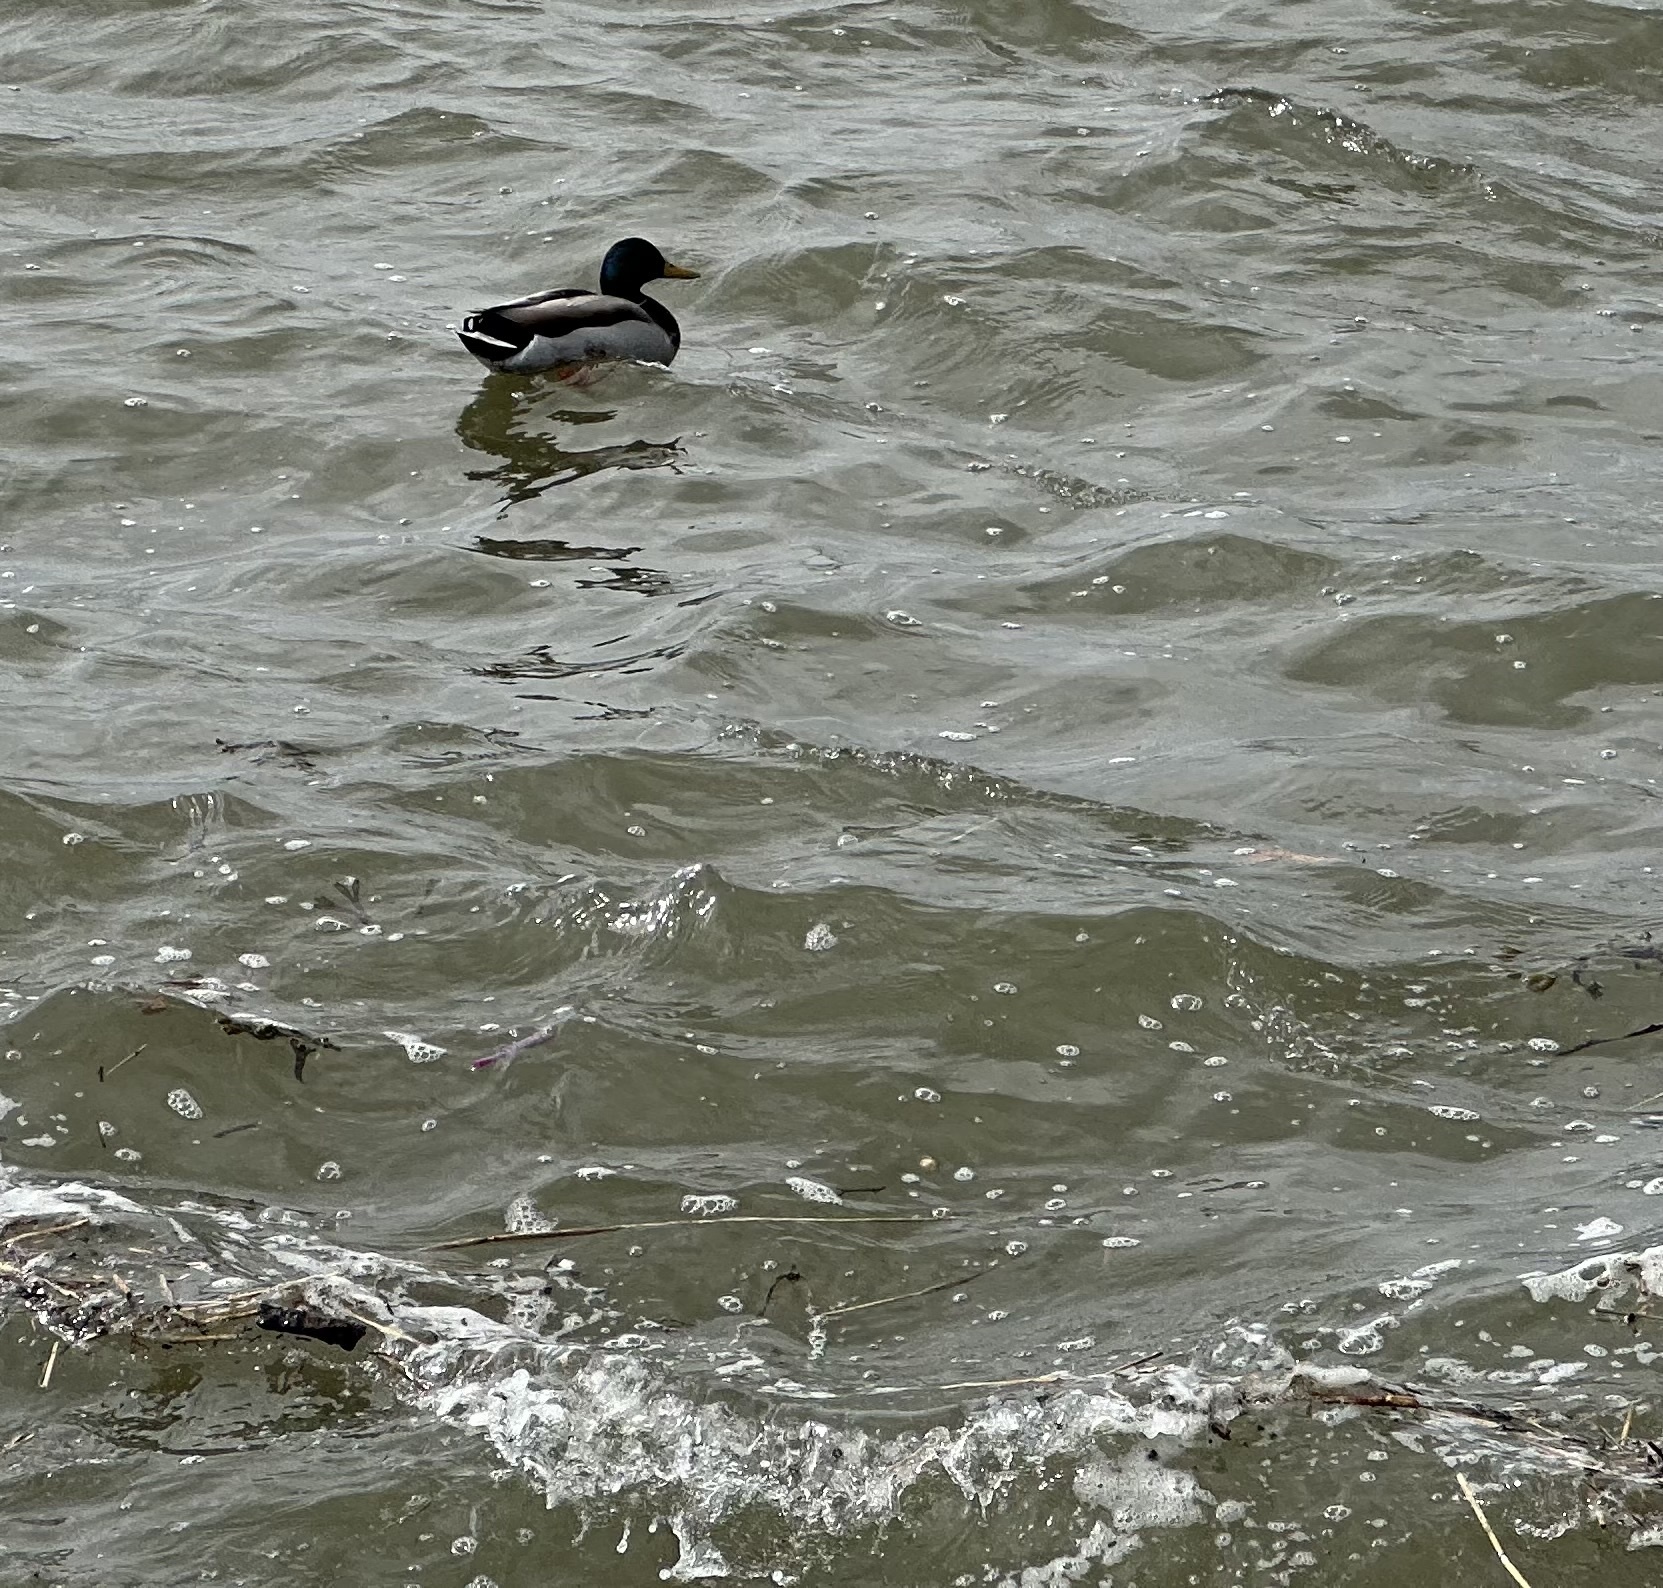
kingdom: Animalia
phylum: Chordata
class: Aves
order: Anseriformes
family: Anatidae
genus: Anas
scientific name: Anas platyrhynchos
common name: Mallard
